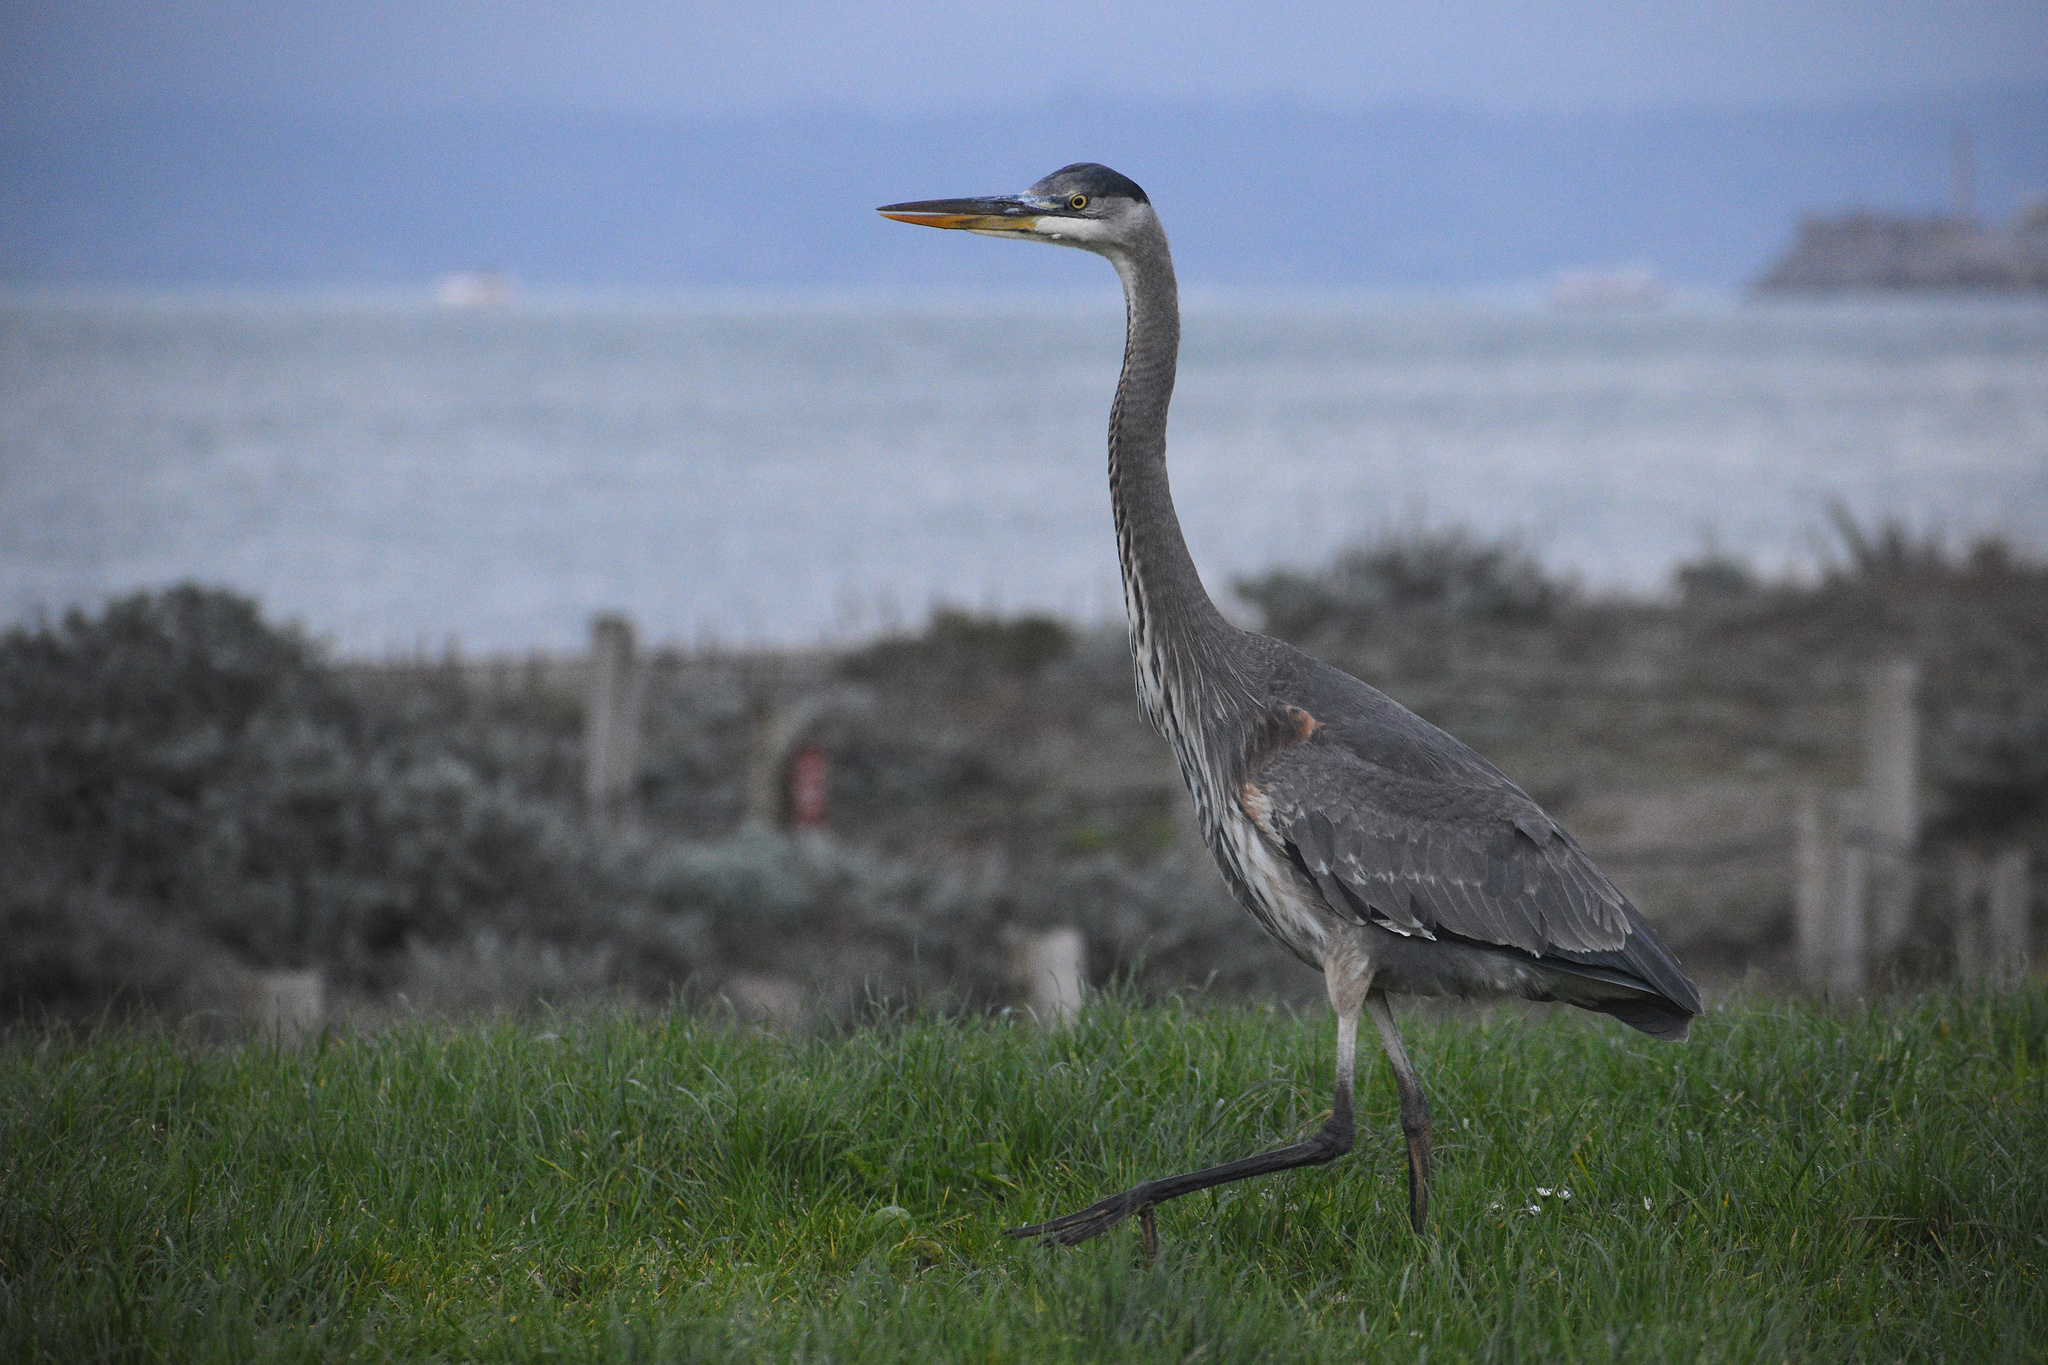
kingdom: Animalia
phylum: Chordata
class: Aves
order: Pelecaniformes
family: Ardeidae
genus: Ardea
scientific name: Ardea herodias
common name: Great blue heron
